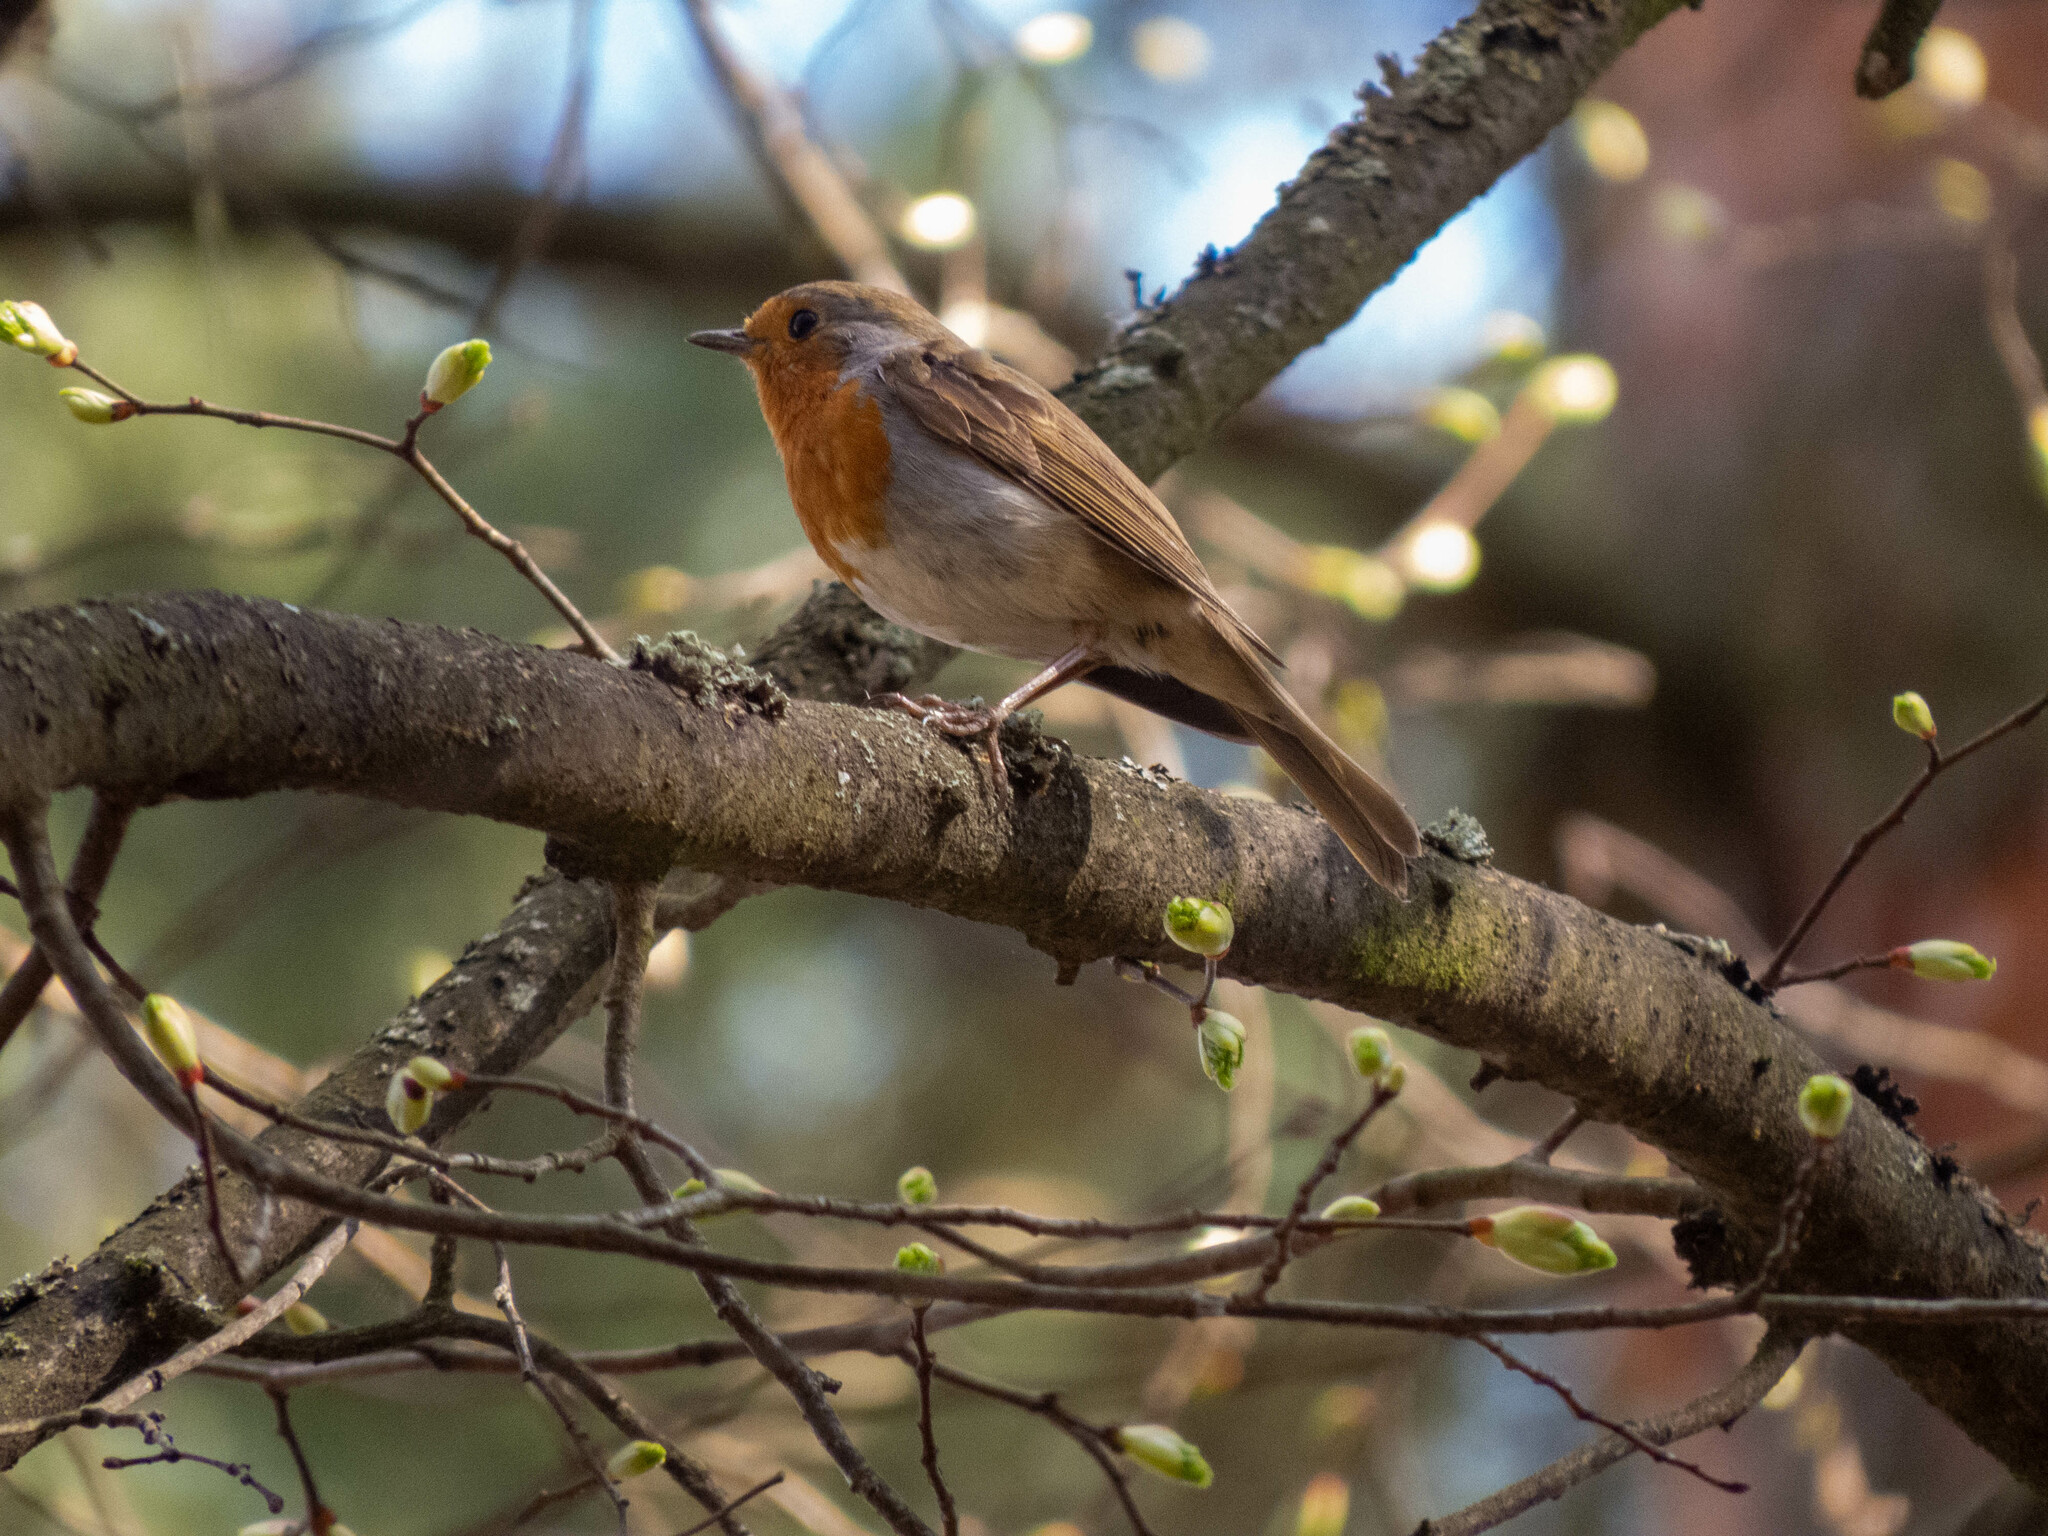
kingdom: Animalia
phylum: Chordata
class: Aves
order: Passeriformes
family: Muscicapidae
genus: Erithacus
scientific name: Erithacus rubecula
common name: European robin
